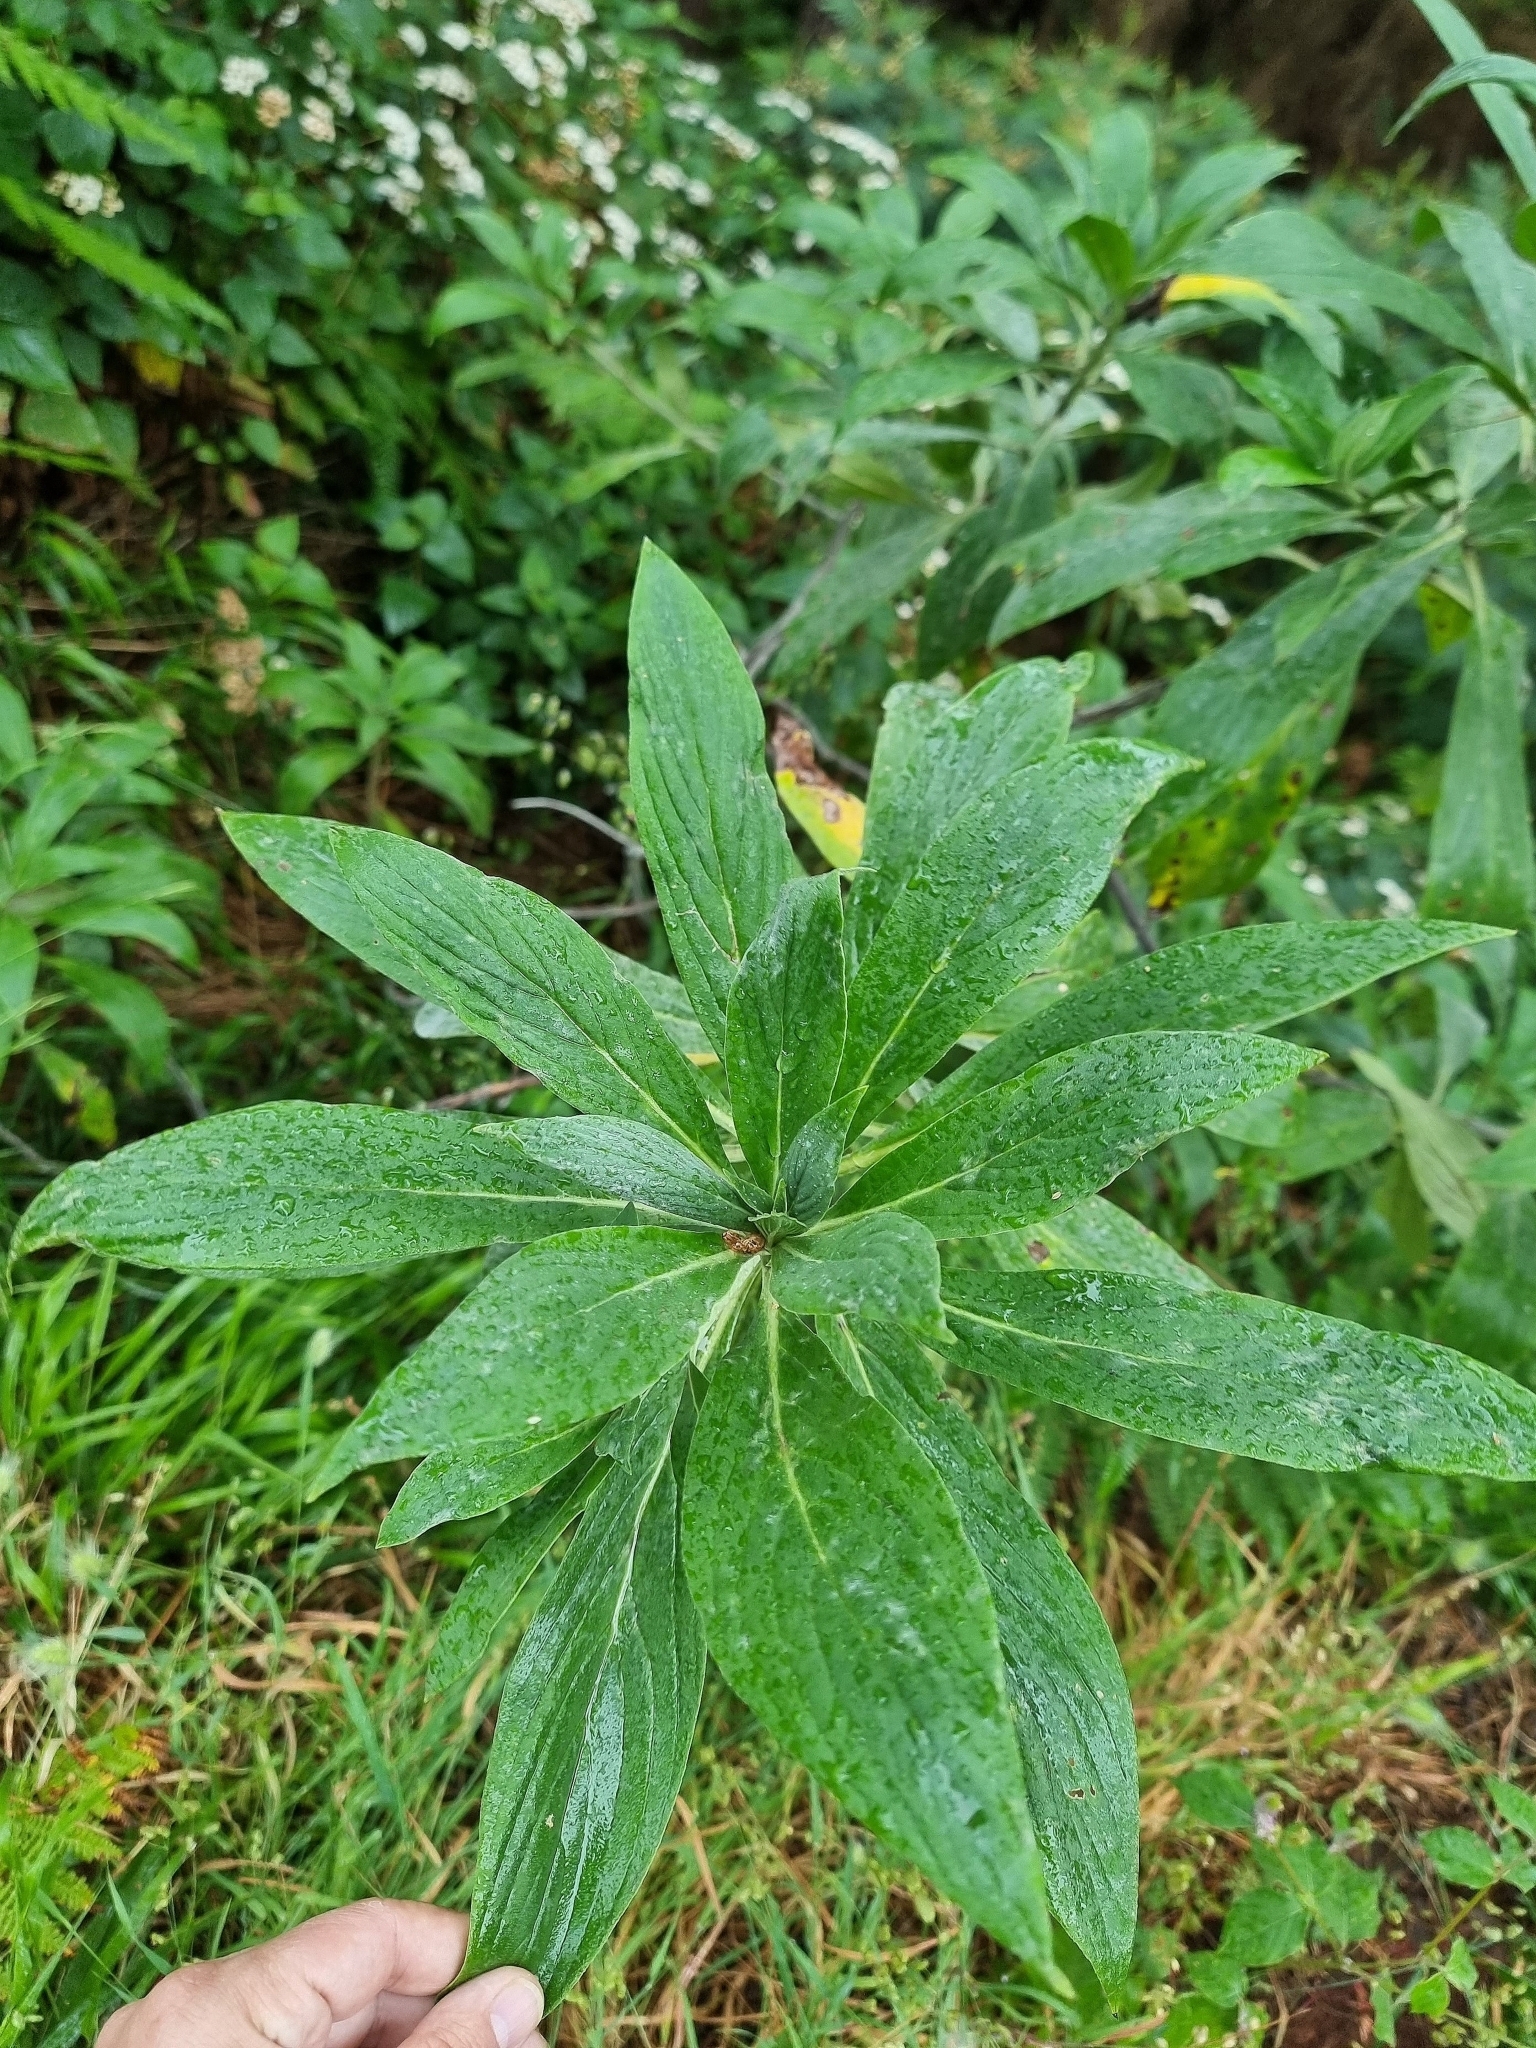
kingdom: Plantae
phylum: Tracheophyta
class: Magnoliopsida
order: Boraginales
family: Boraginaceae
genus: Echium
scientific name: Echium candicans
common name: Pride of madeira
